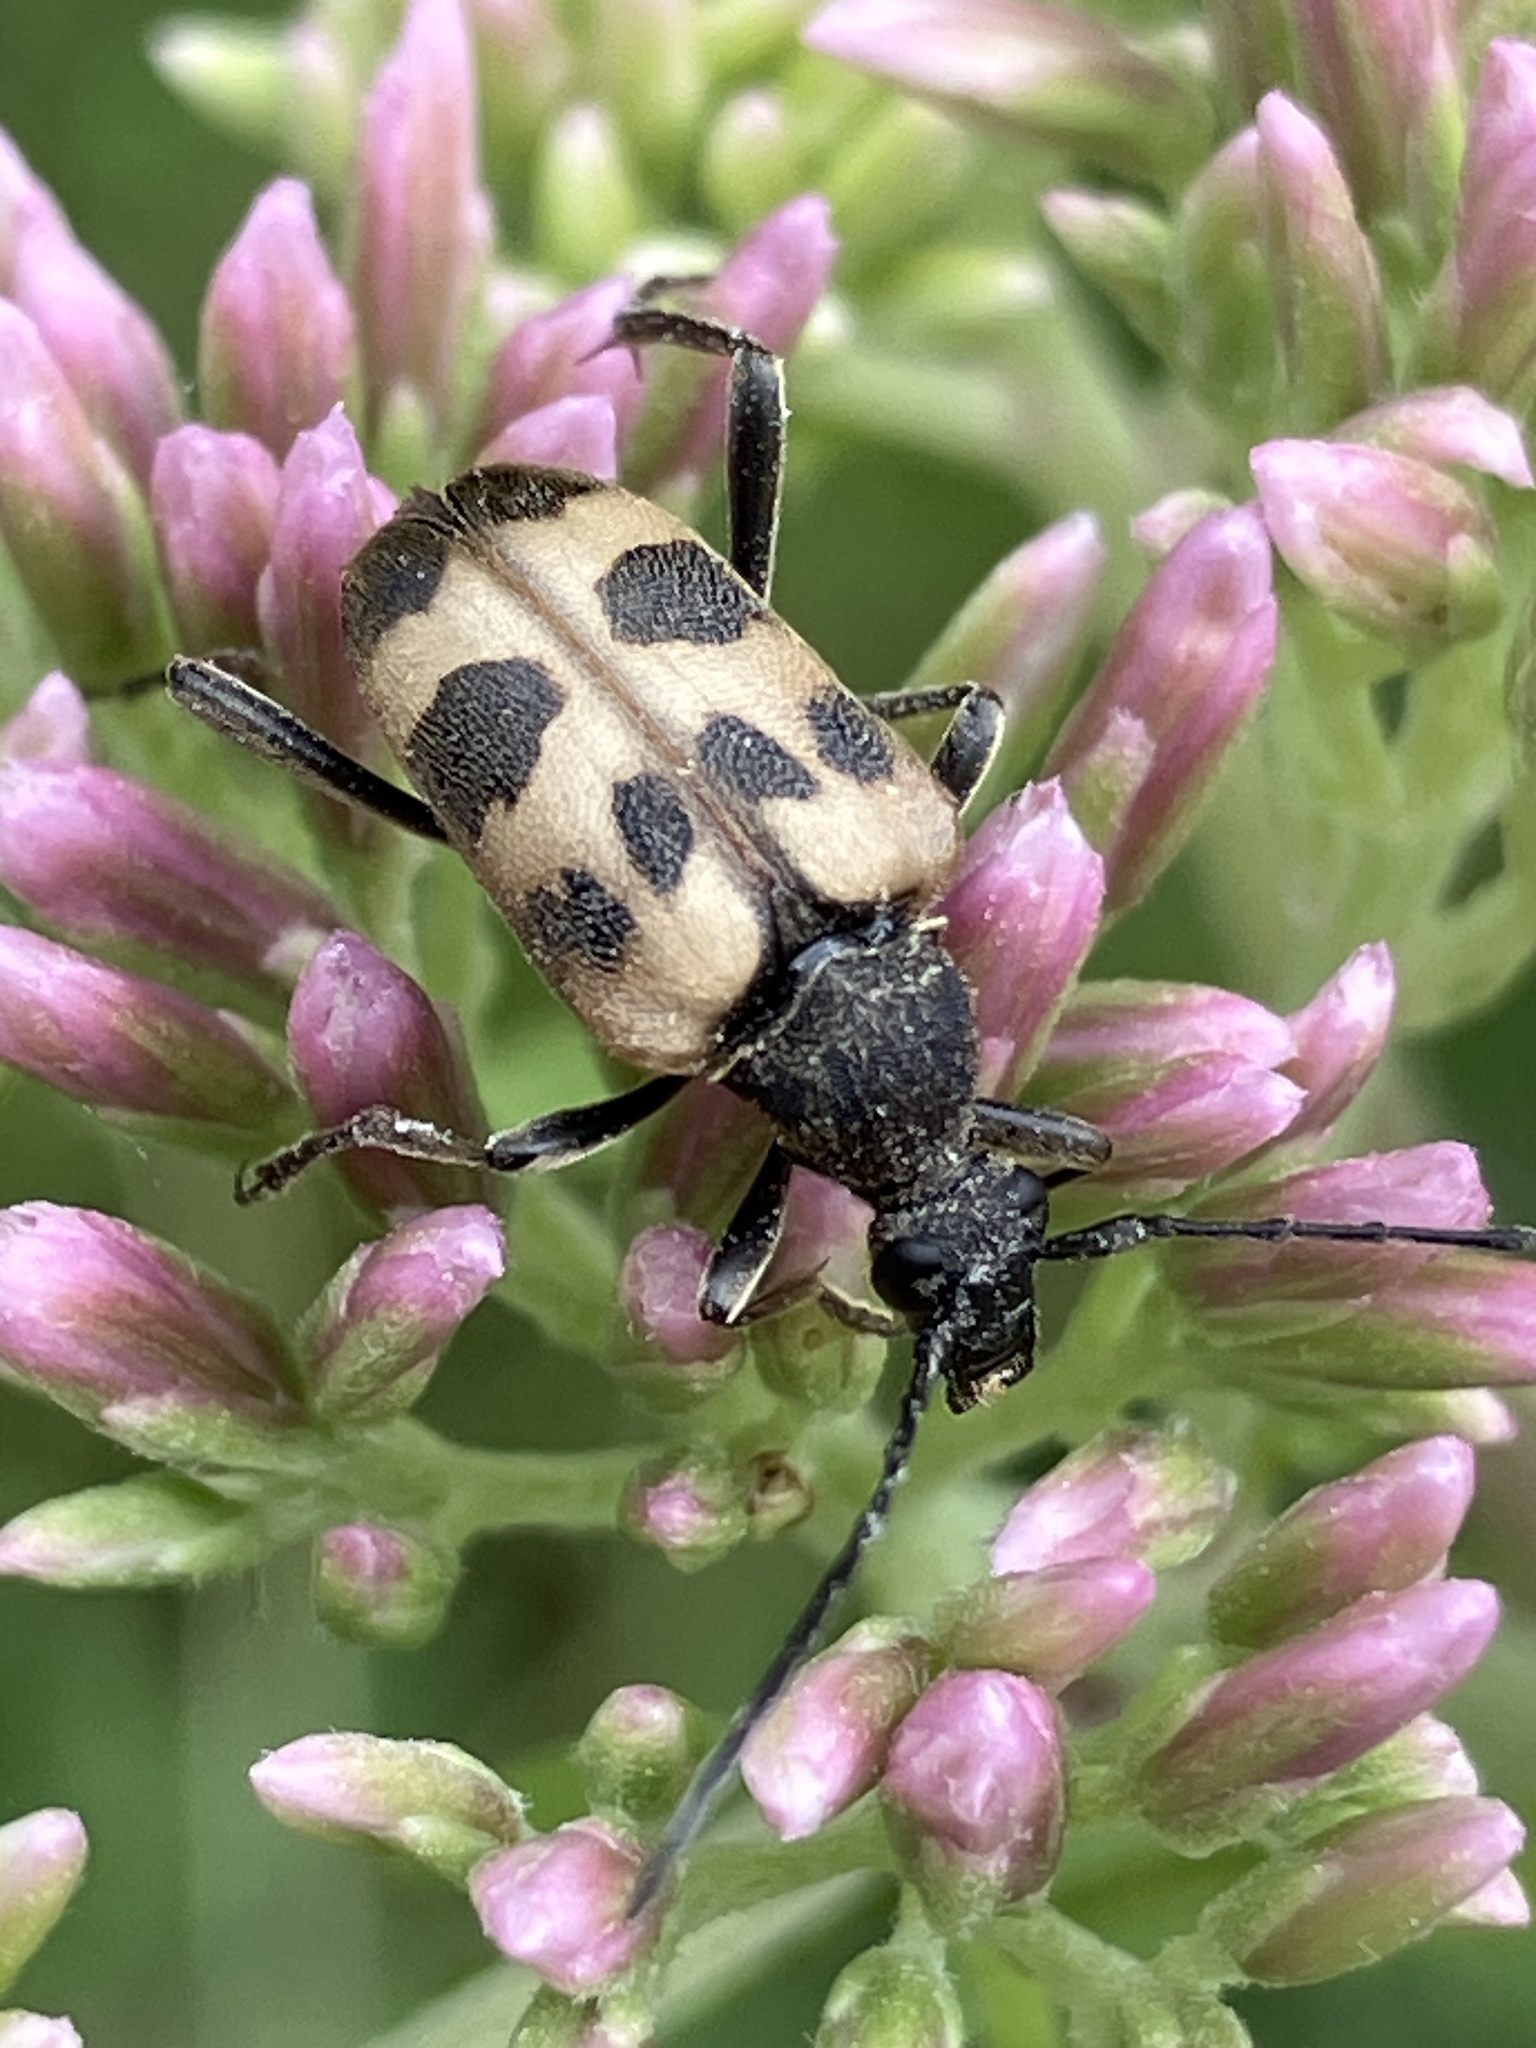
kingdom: Animalia
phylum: Arthropoda
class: Insecta
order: Coleoptera
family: Cerambycidae
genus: Pachytodes
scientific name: Pachytodes cerambyciformis
